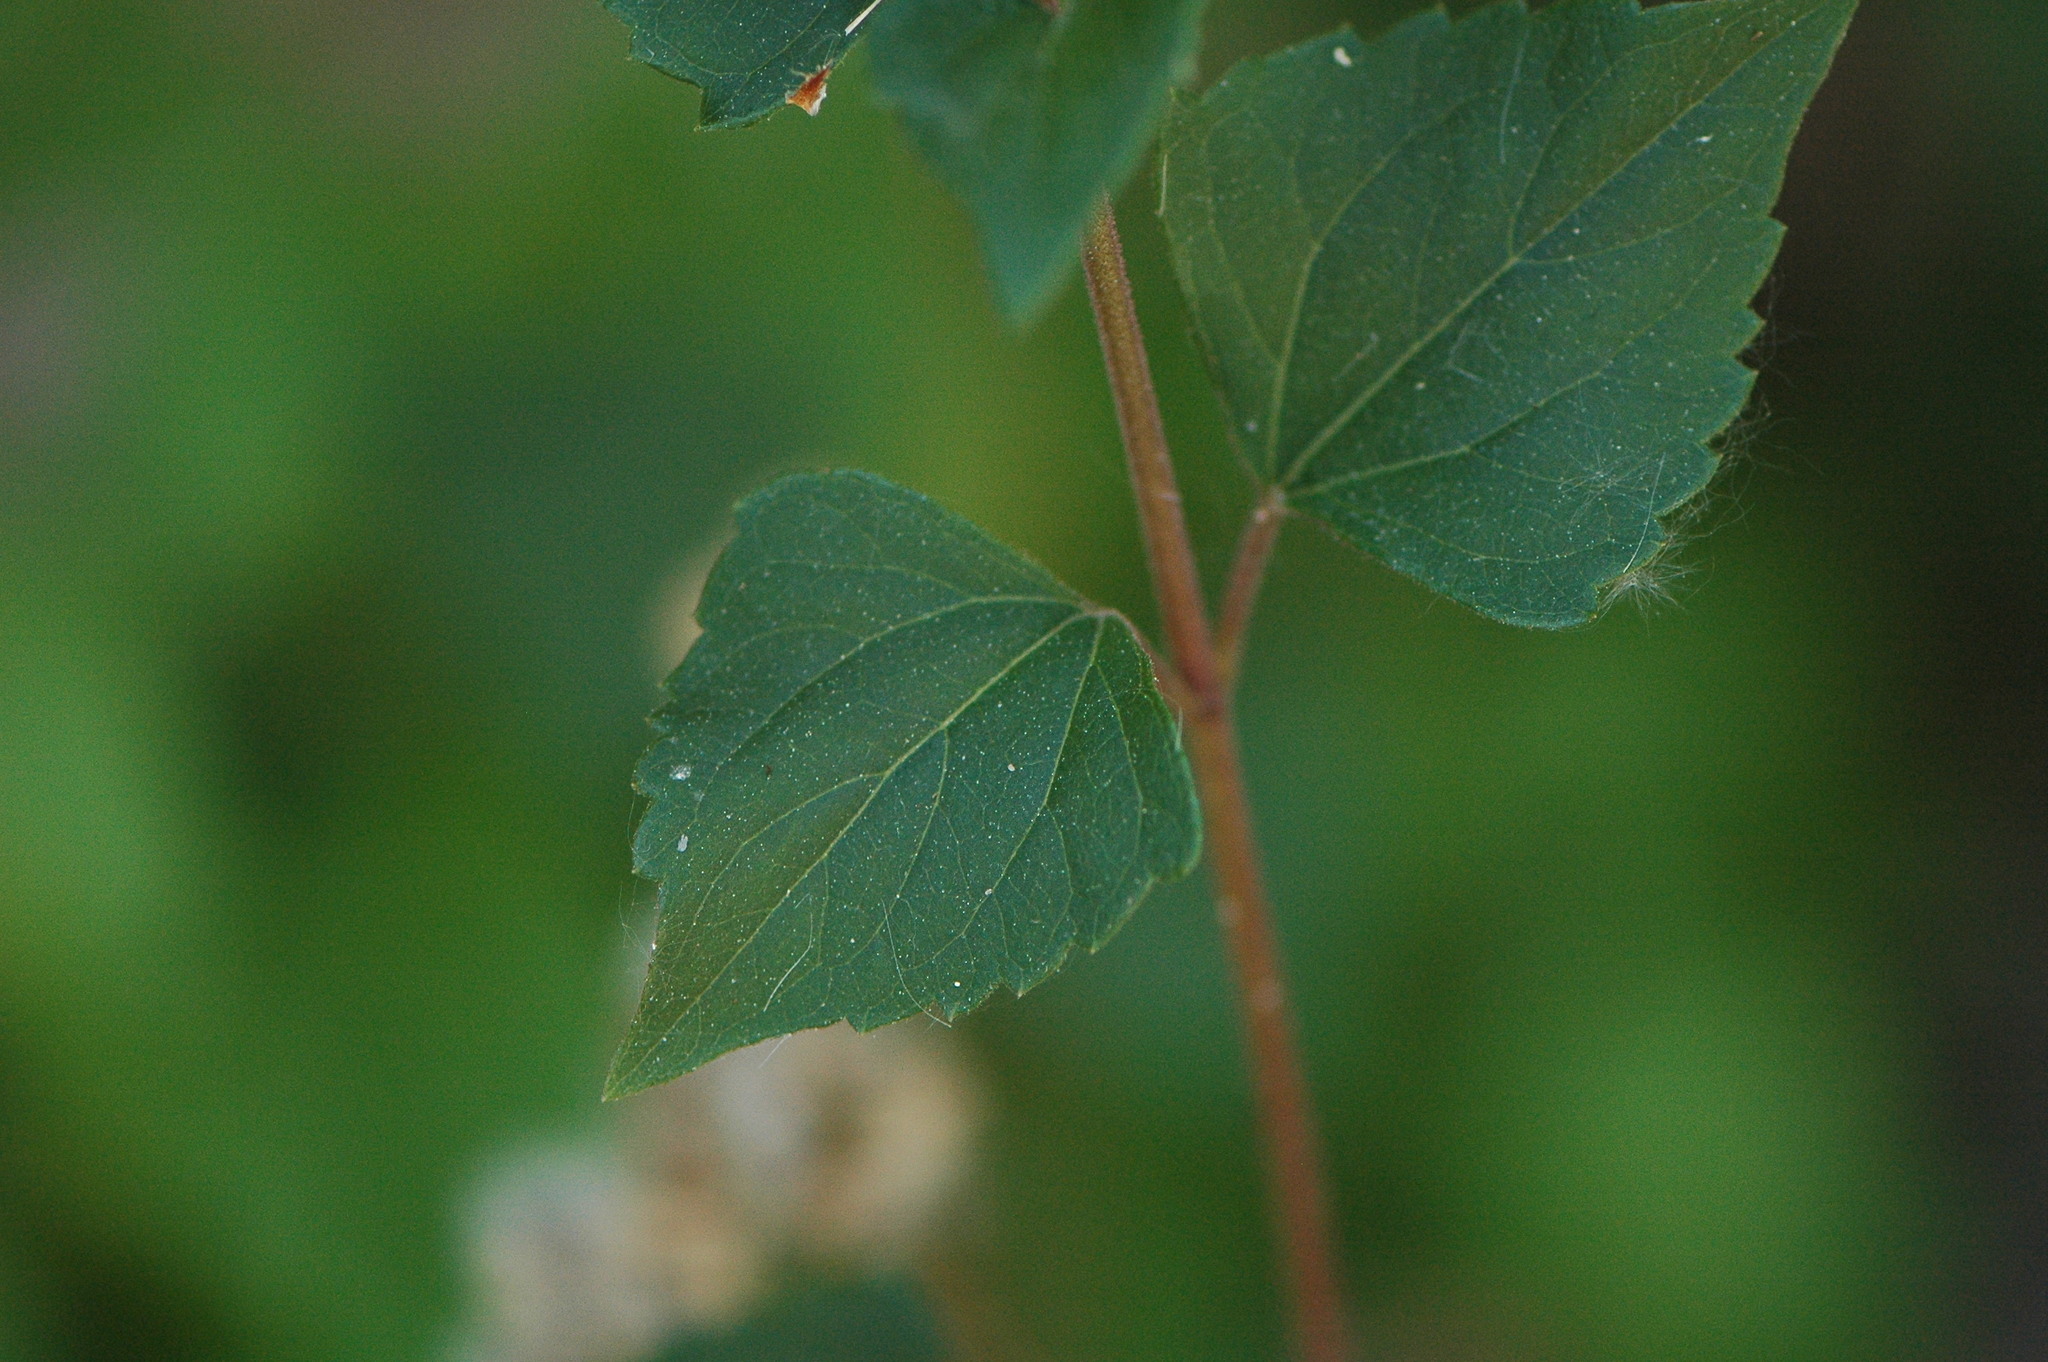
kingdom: Plantae
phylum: Tracheophyta
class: Magnoliopsida
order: Asterales
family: Asteraceae
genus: Ageratina
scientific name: Ageratina adenophora
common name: Sticky snakeroot
